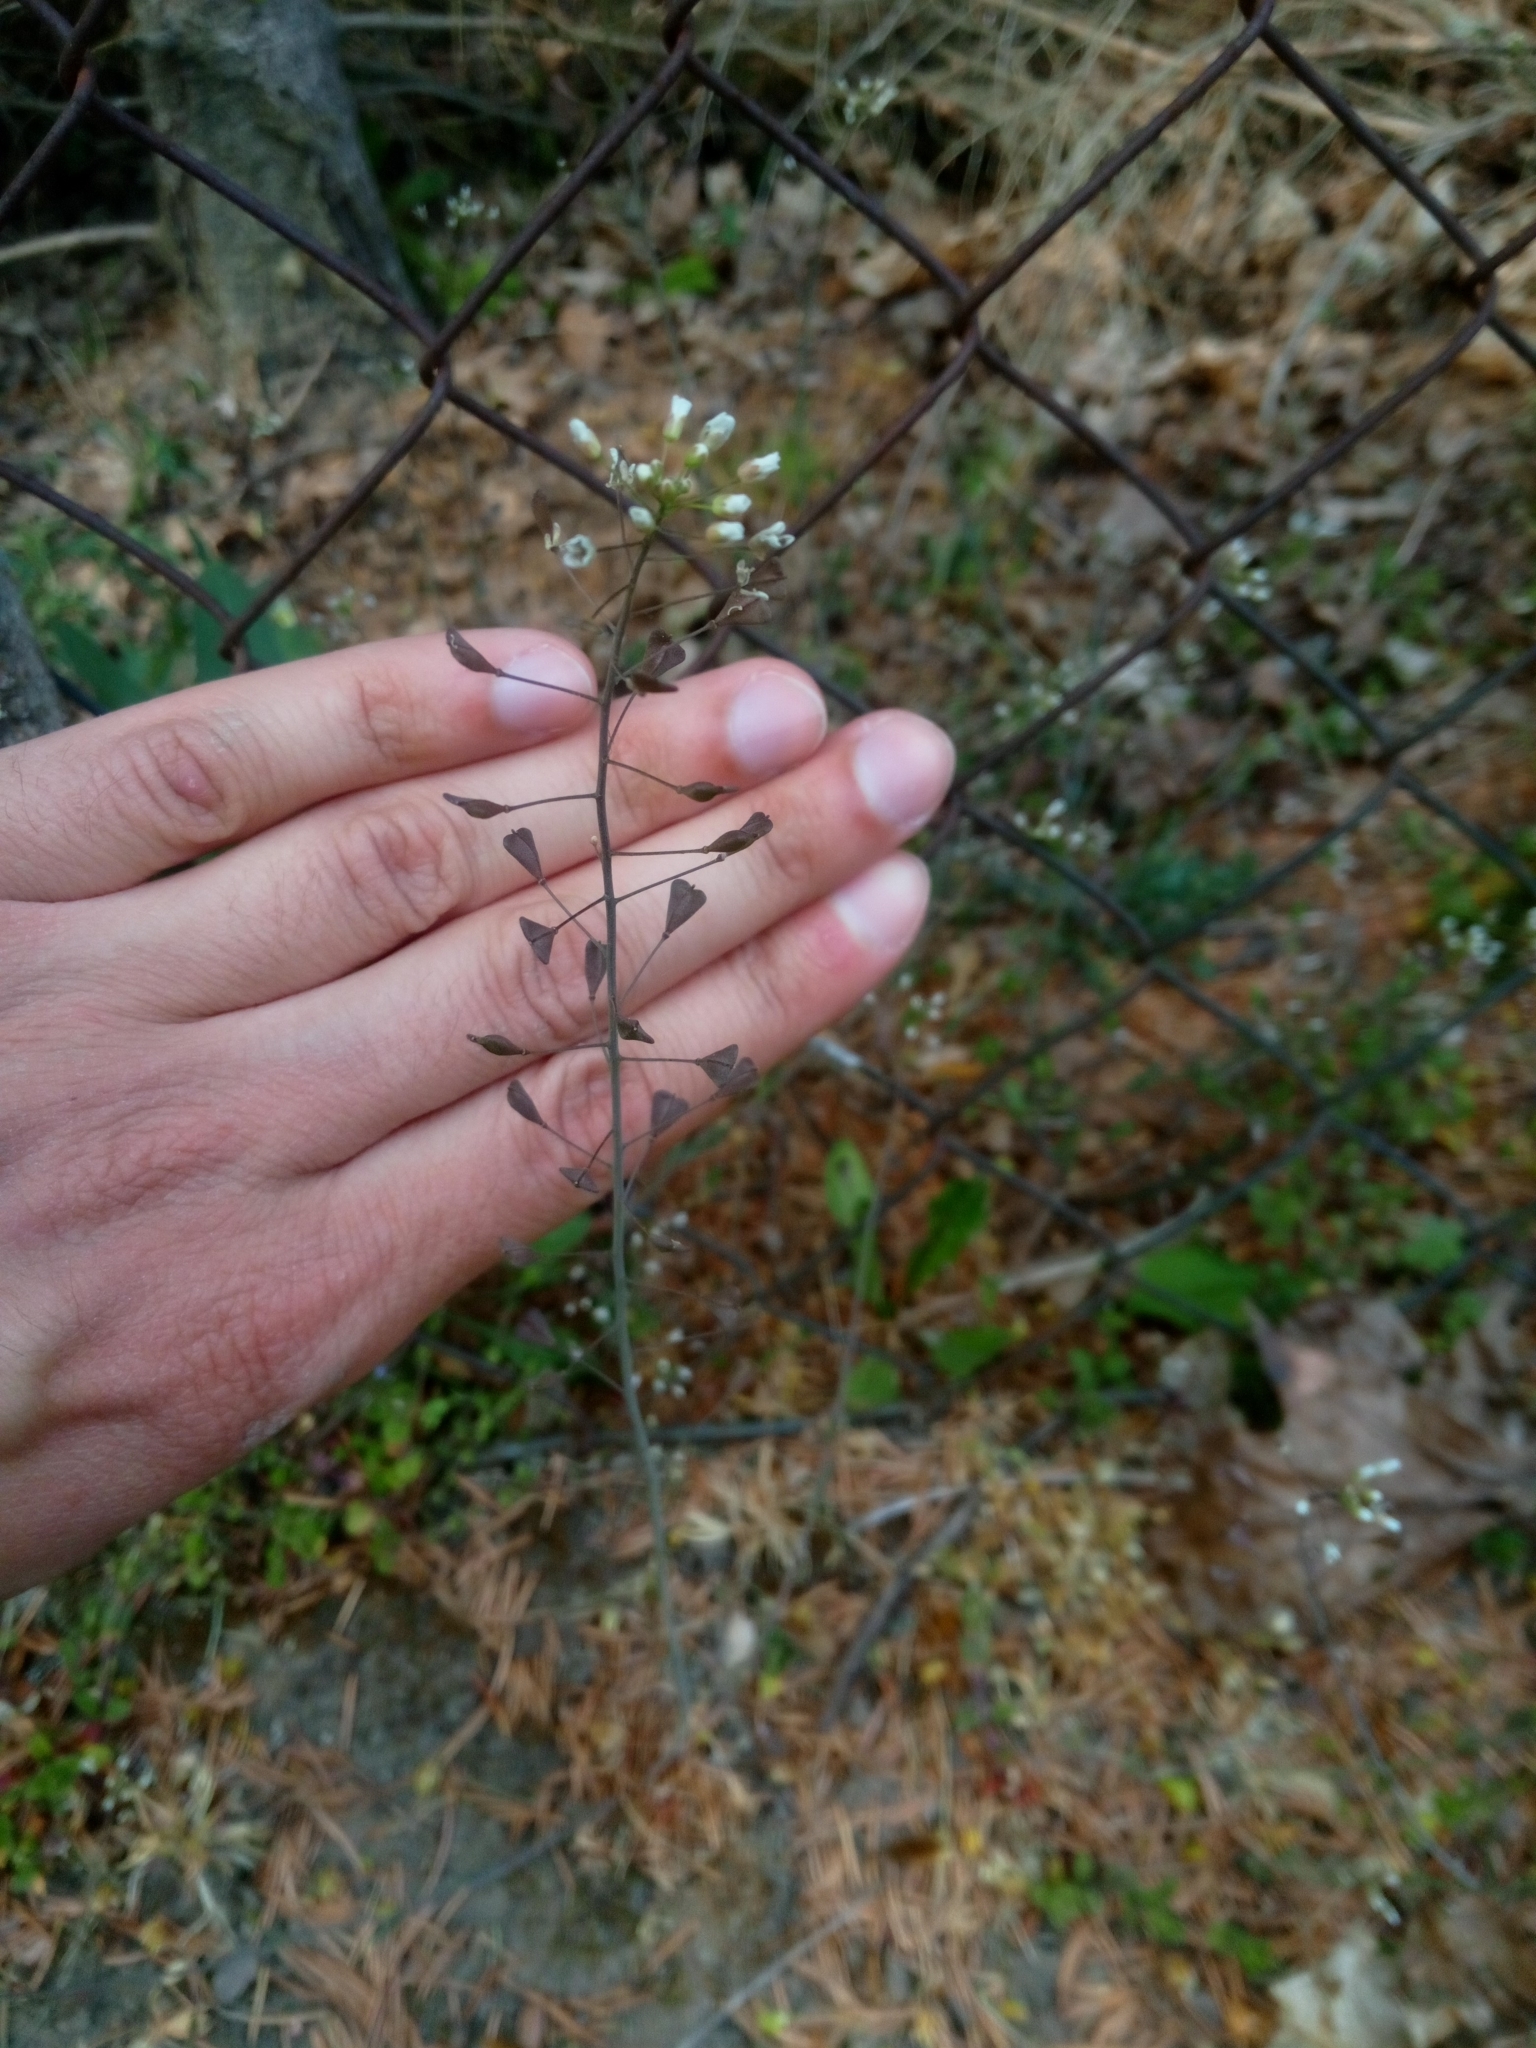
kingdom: Plantae
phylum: Tracheophyta
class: Magnoliopsida
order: Brassicales
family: Brassicaceae
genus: Capsella
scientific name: Capsella bursa-pastoris
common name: Shepherd's purse
